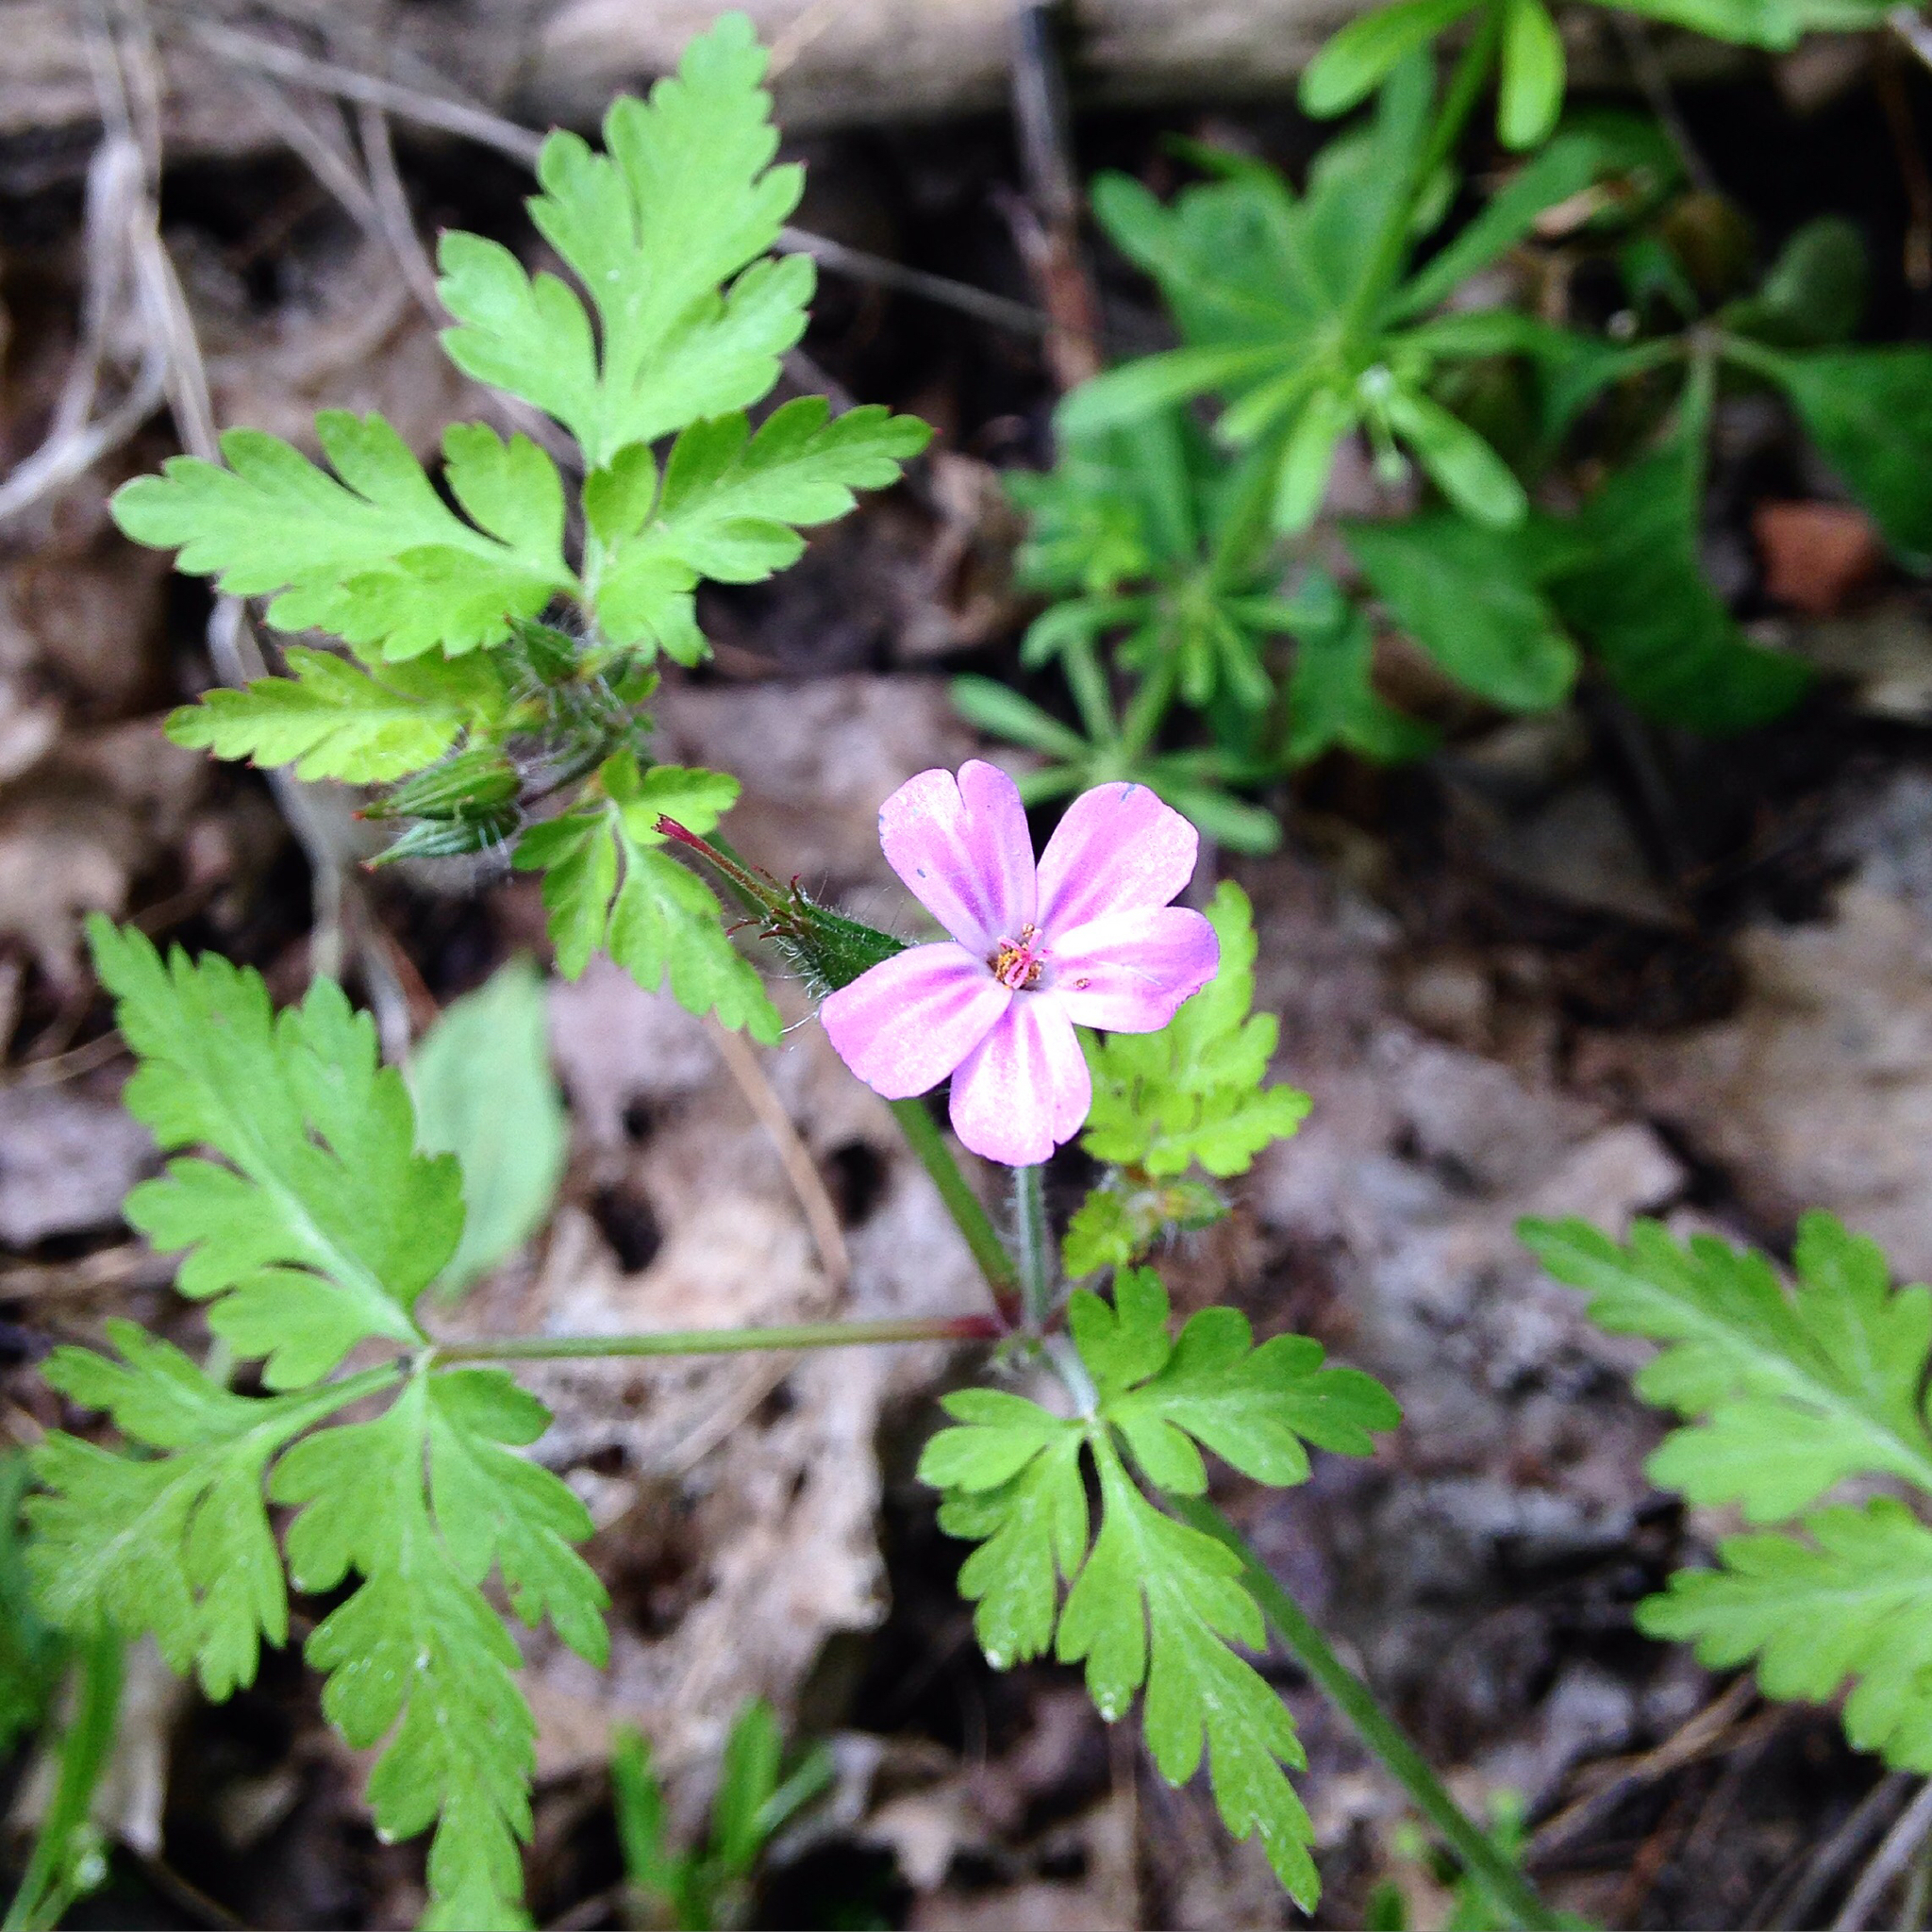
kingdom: Plantae
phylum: Tracheophyta
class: Magnoliopsida
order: Geraniales
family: Geraniaceae
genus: Geranium
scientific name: Geranium robertianum
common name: Herb-robert
